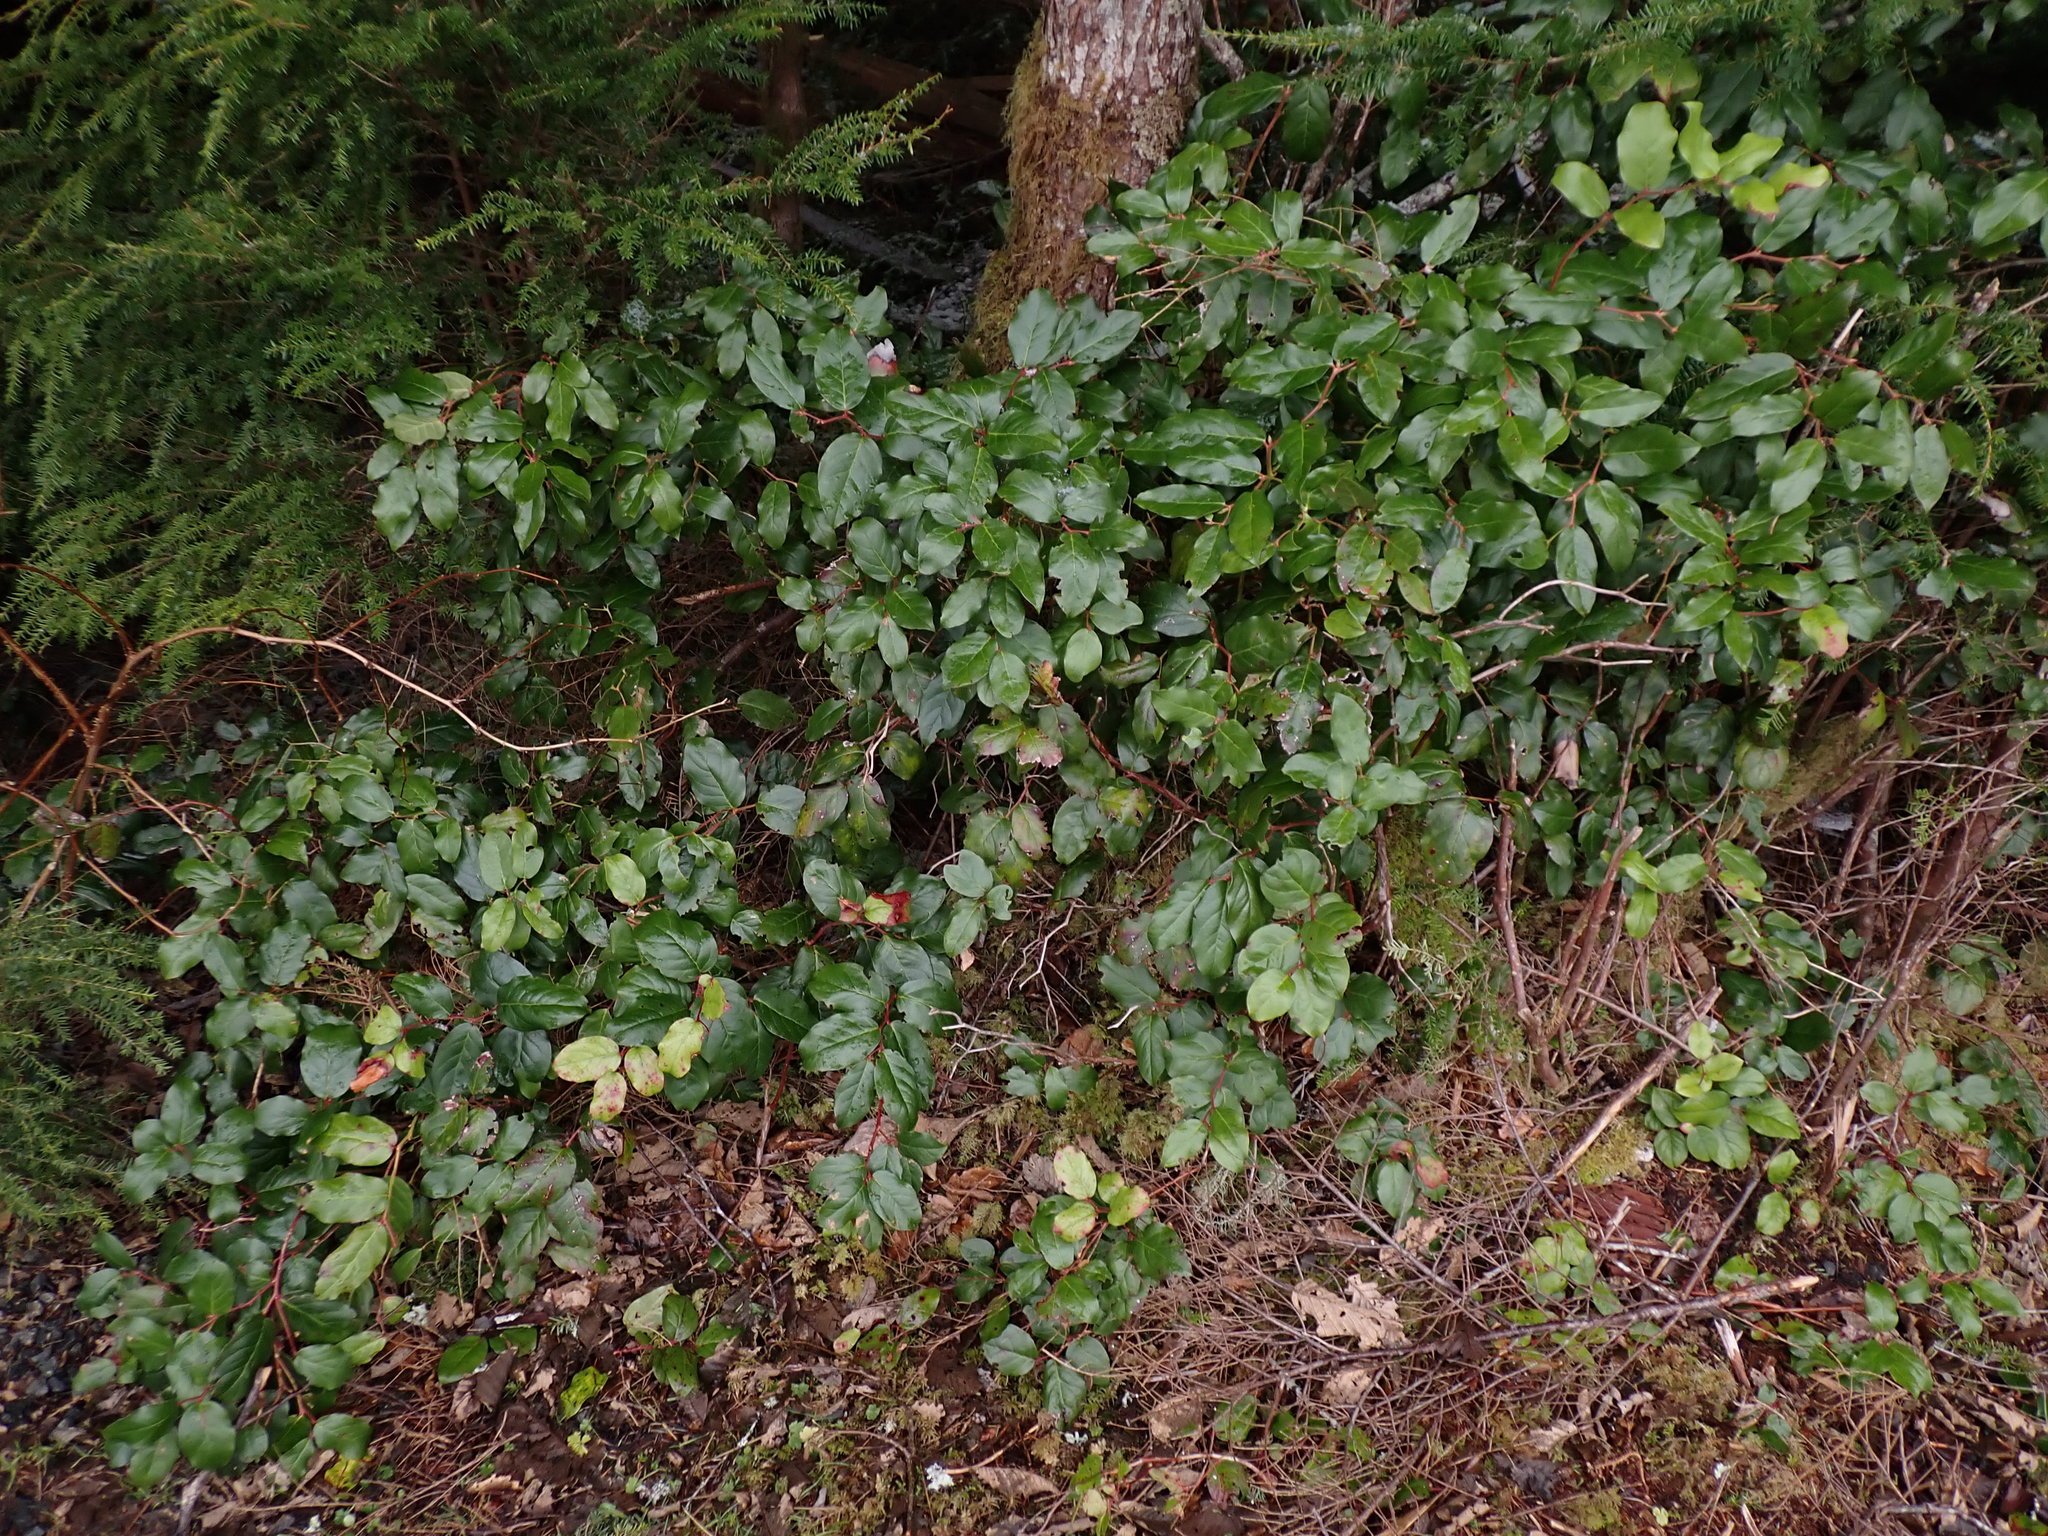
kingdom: Plantae
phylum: Tracheophyta
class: Magnoliopsida
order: Ericales
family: Ericaceae
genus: Gaultheria
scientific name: Gaultheria shallon
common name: Shallon
